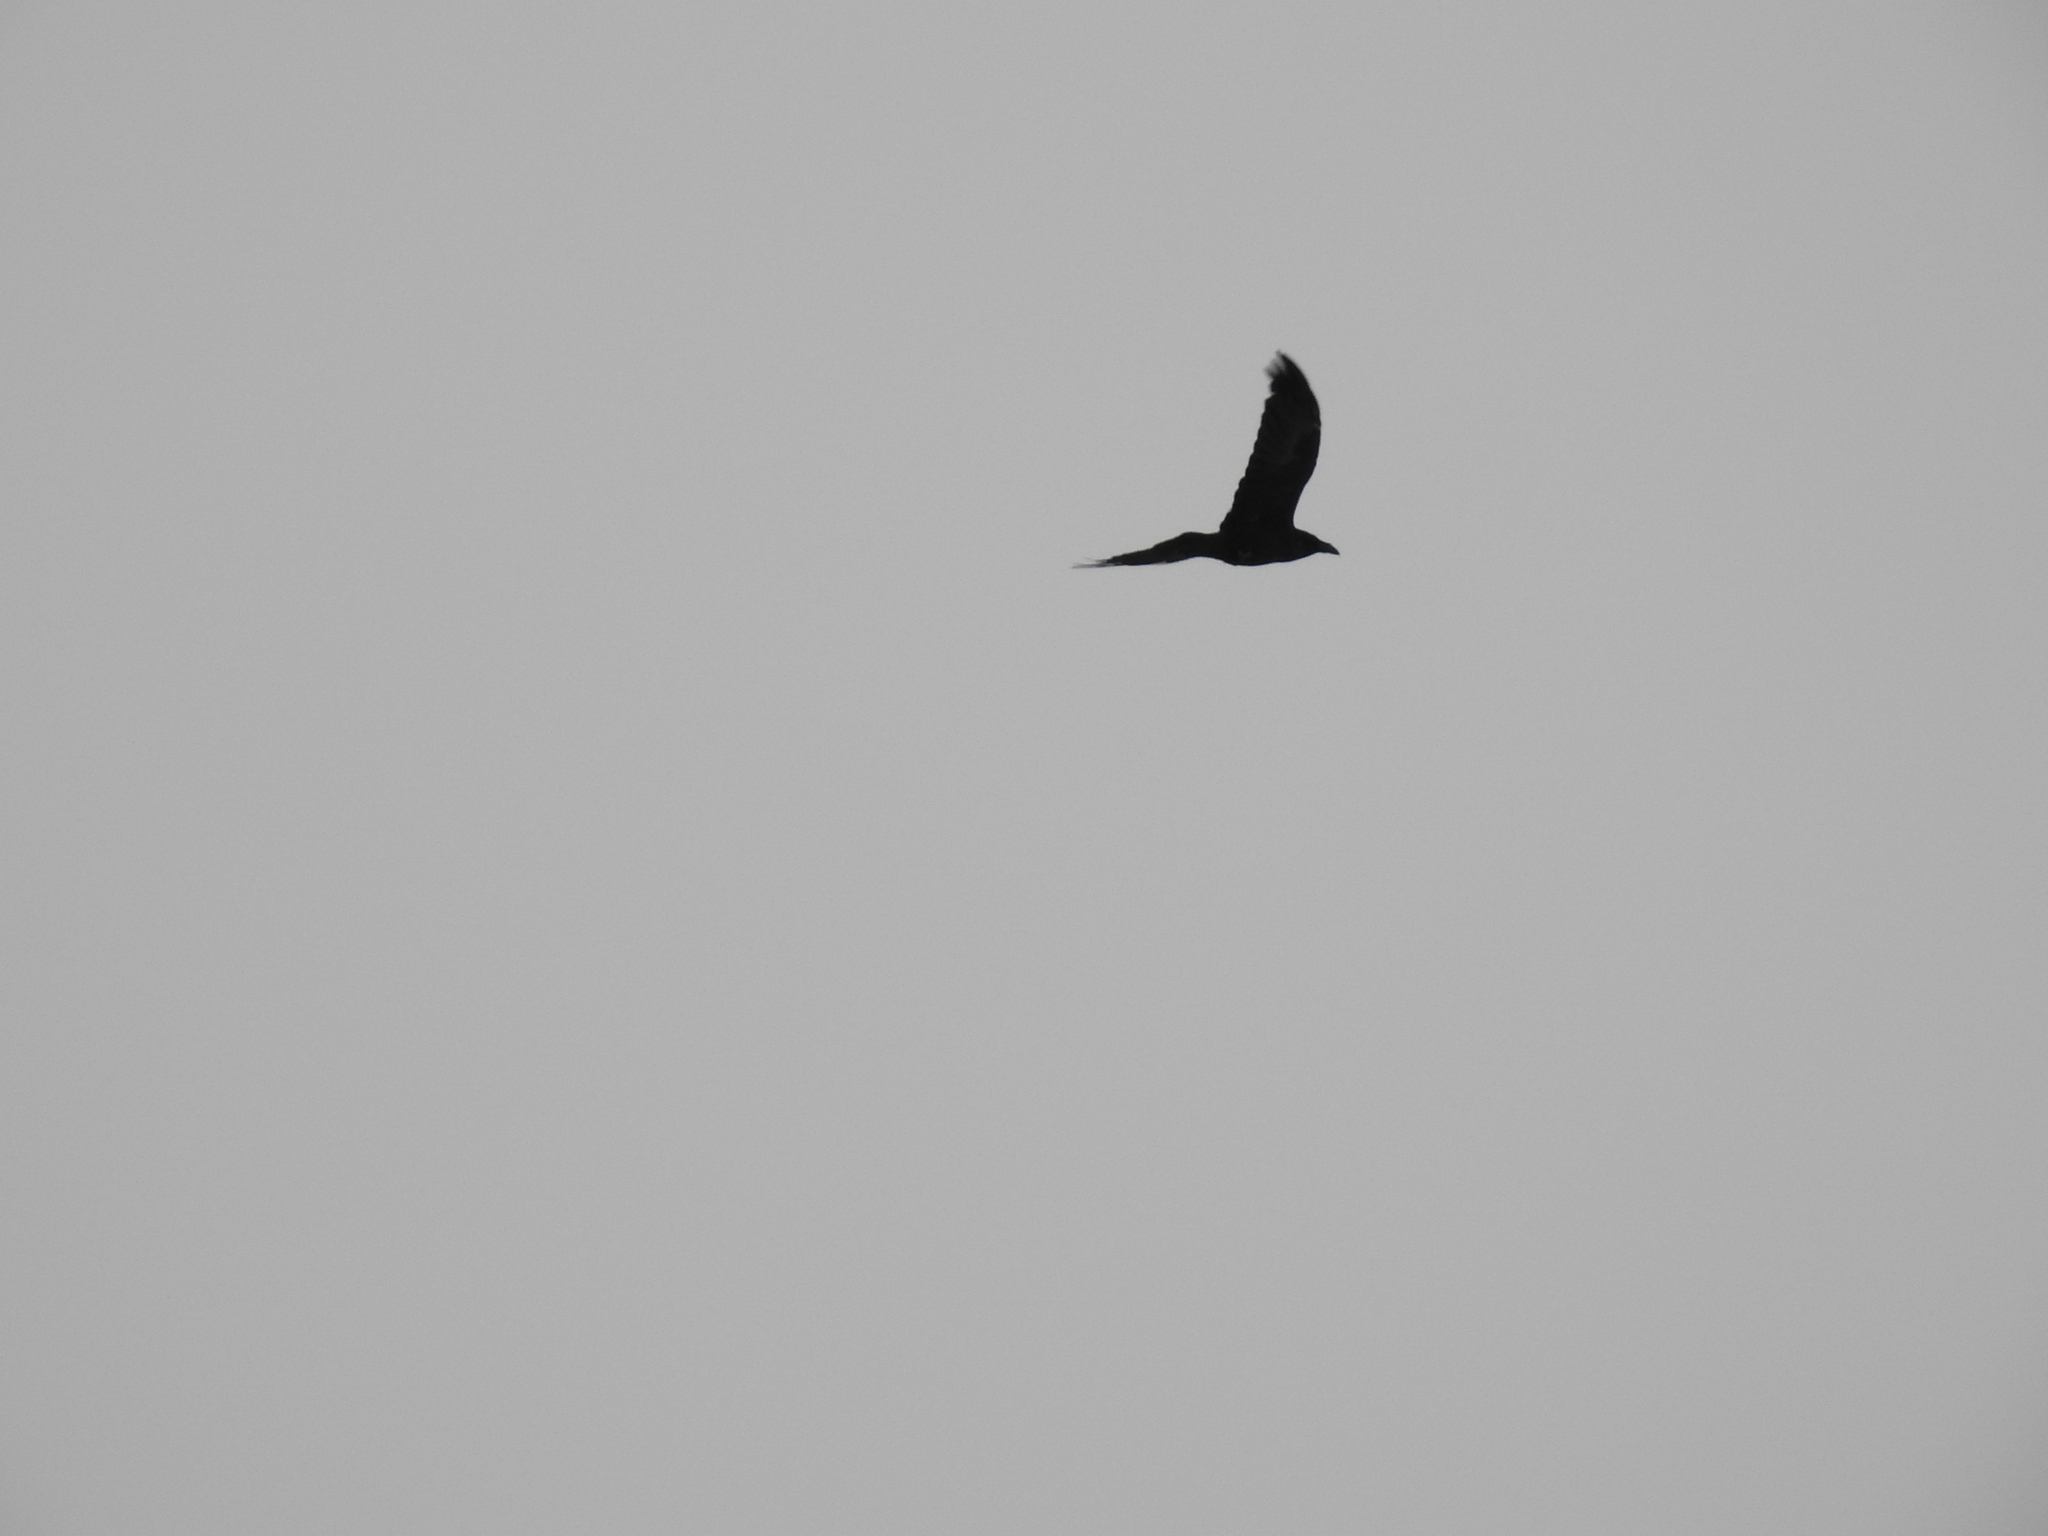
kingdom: Animalia
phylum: Chordata
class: Aves
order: Passeriformes
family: Corvidae
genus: Corvus
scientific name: Corvus corax
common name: Common raven
